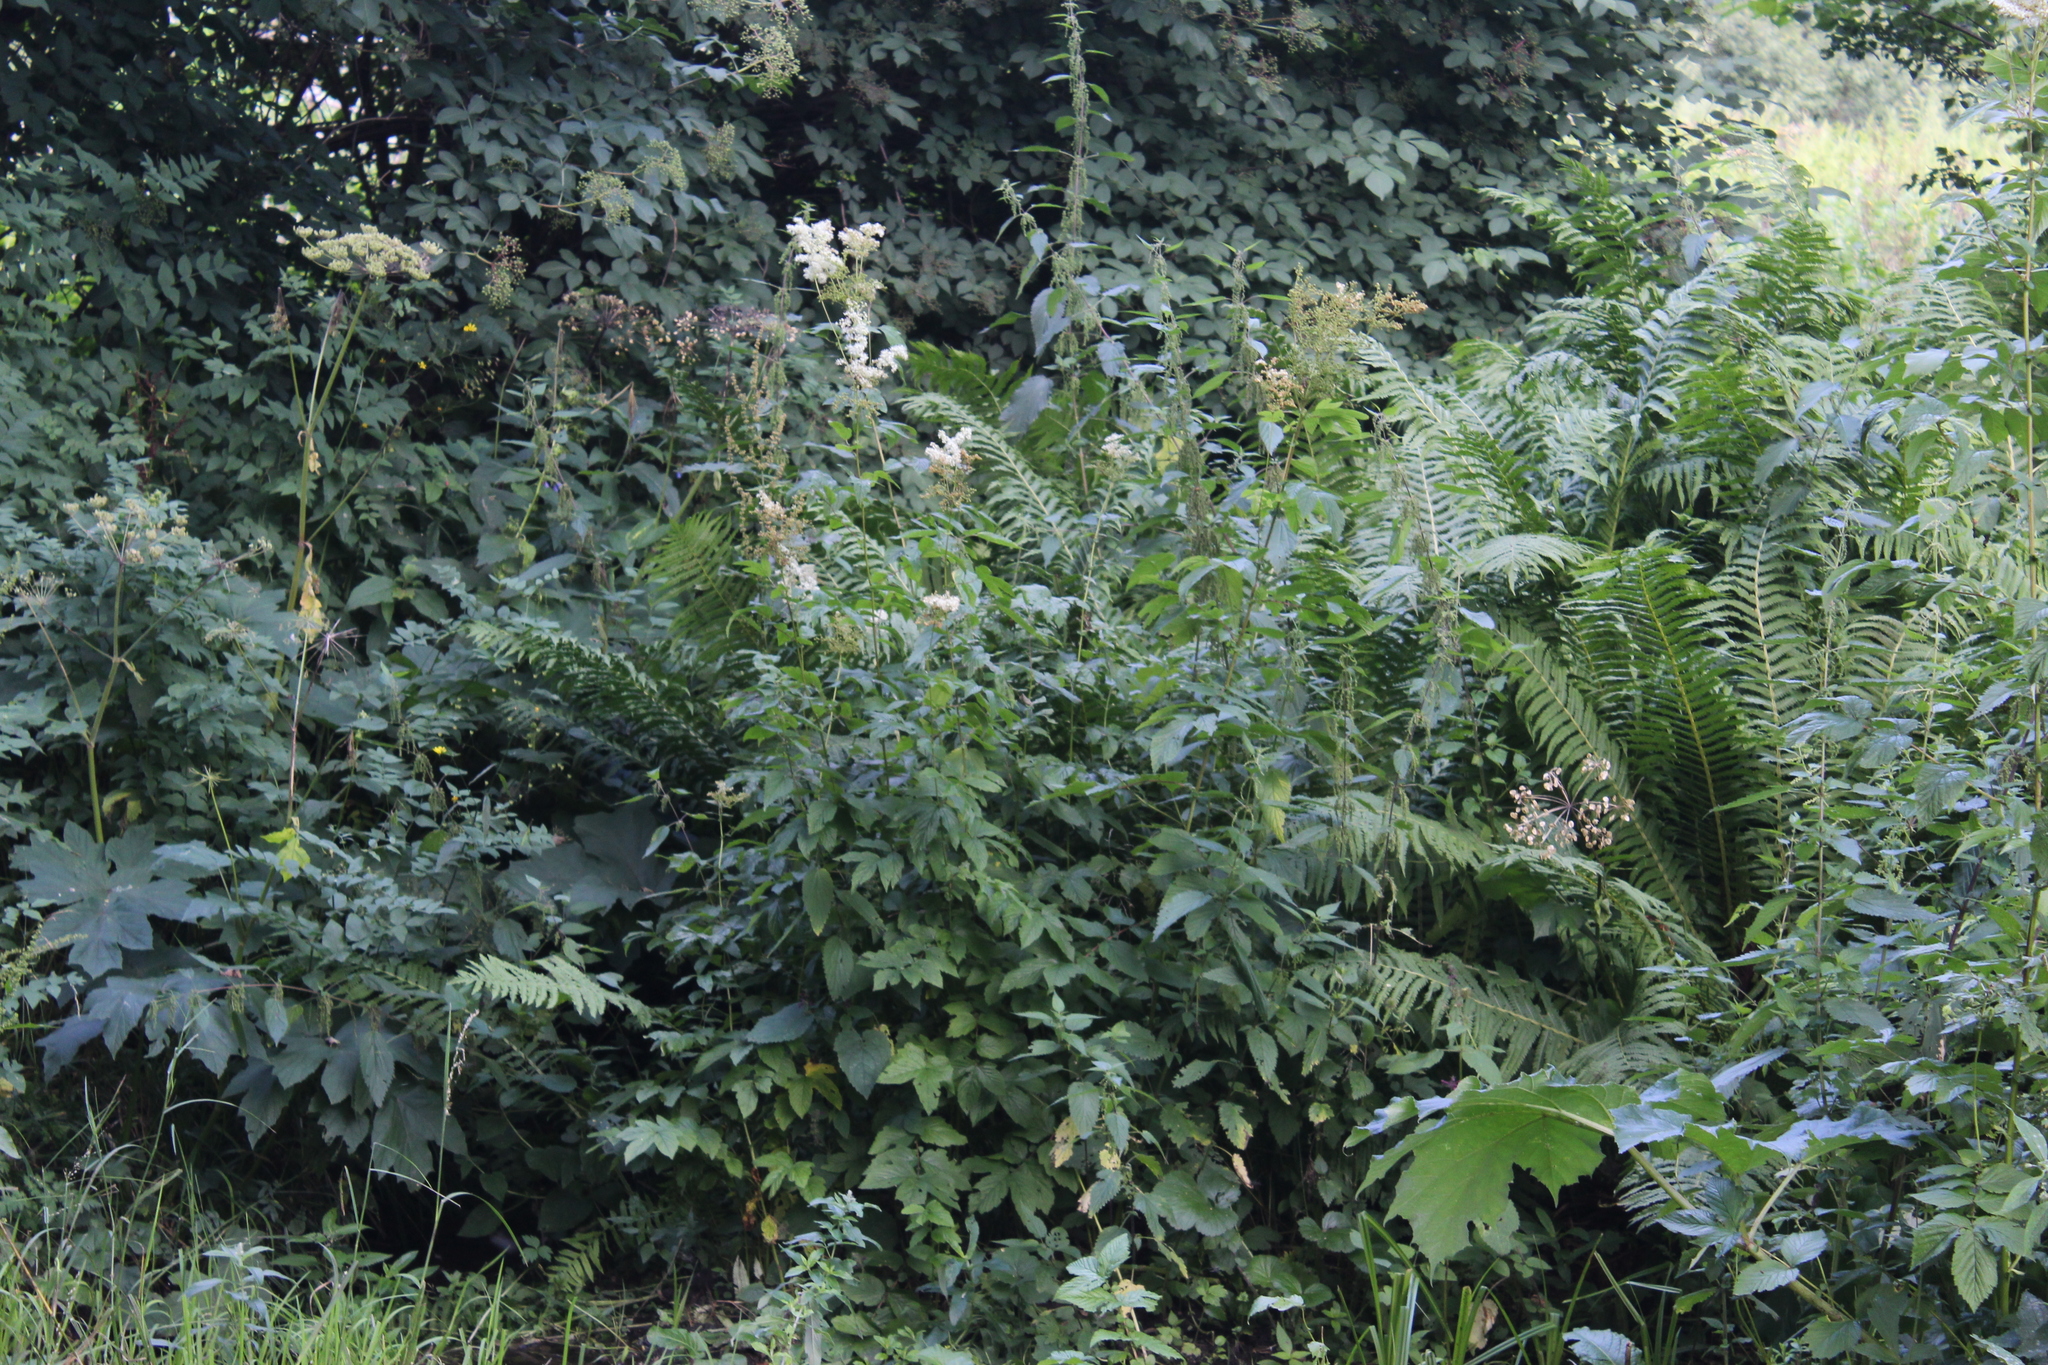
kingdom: Plantae
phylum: Tracheophyta
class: Magnoliopsida
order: Rosales
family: Rosaceae
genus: Filipendula
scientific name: Filipendula ulmaria
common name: Meadowsweet
